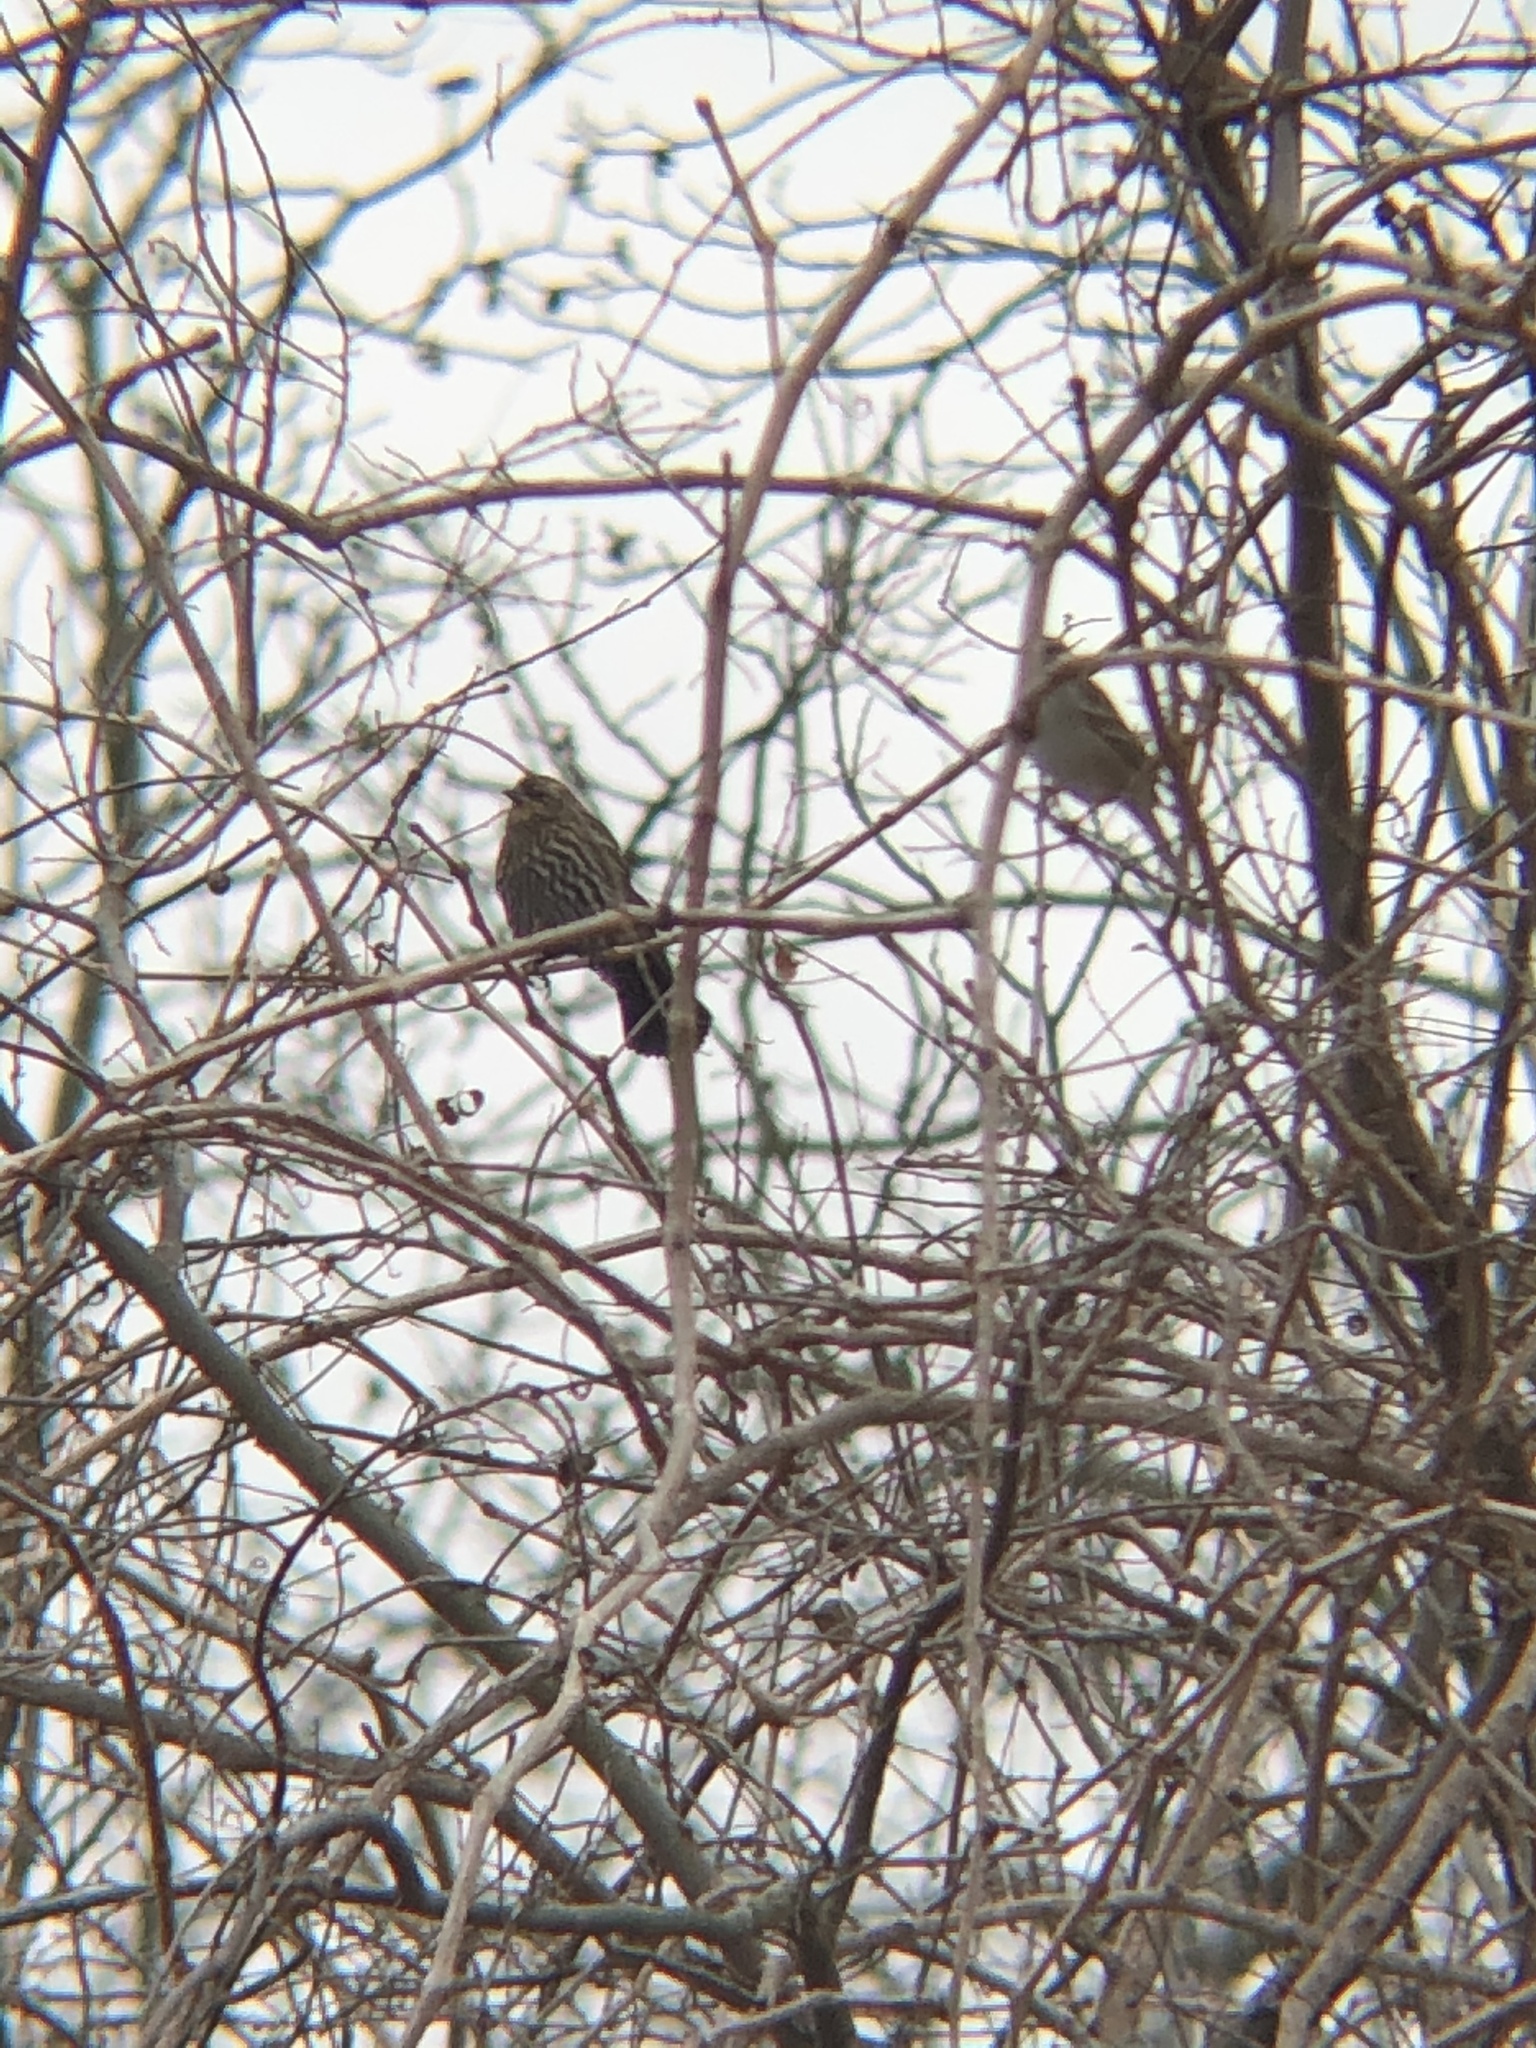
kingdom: Animalia
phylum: Chordata
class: Aves
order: Passeriformes
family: Icteridae
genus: Agelaius
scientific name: Agelaius phoeniceus
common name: Red-winged blackbird
